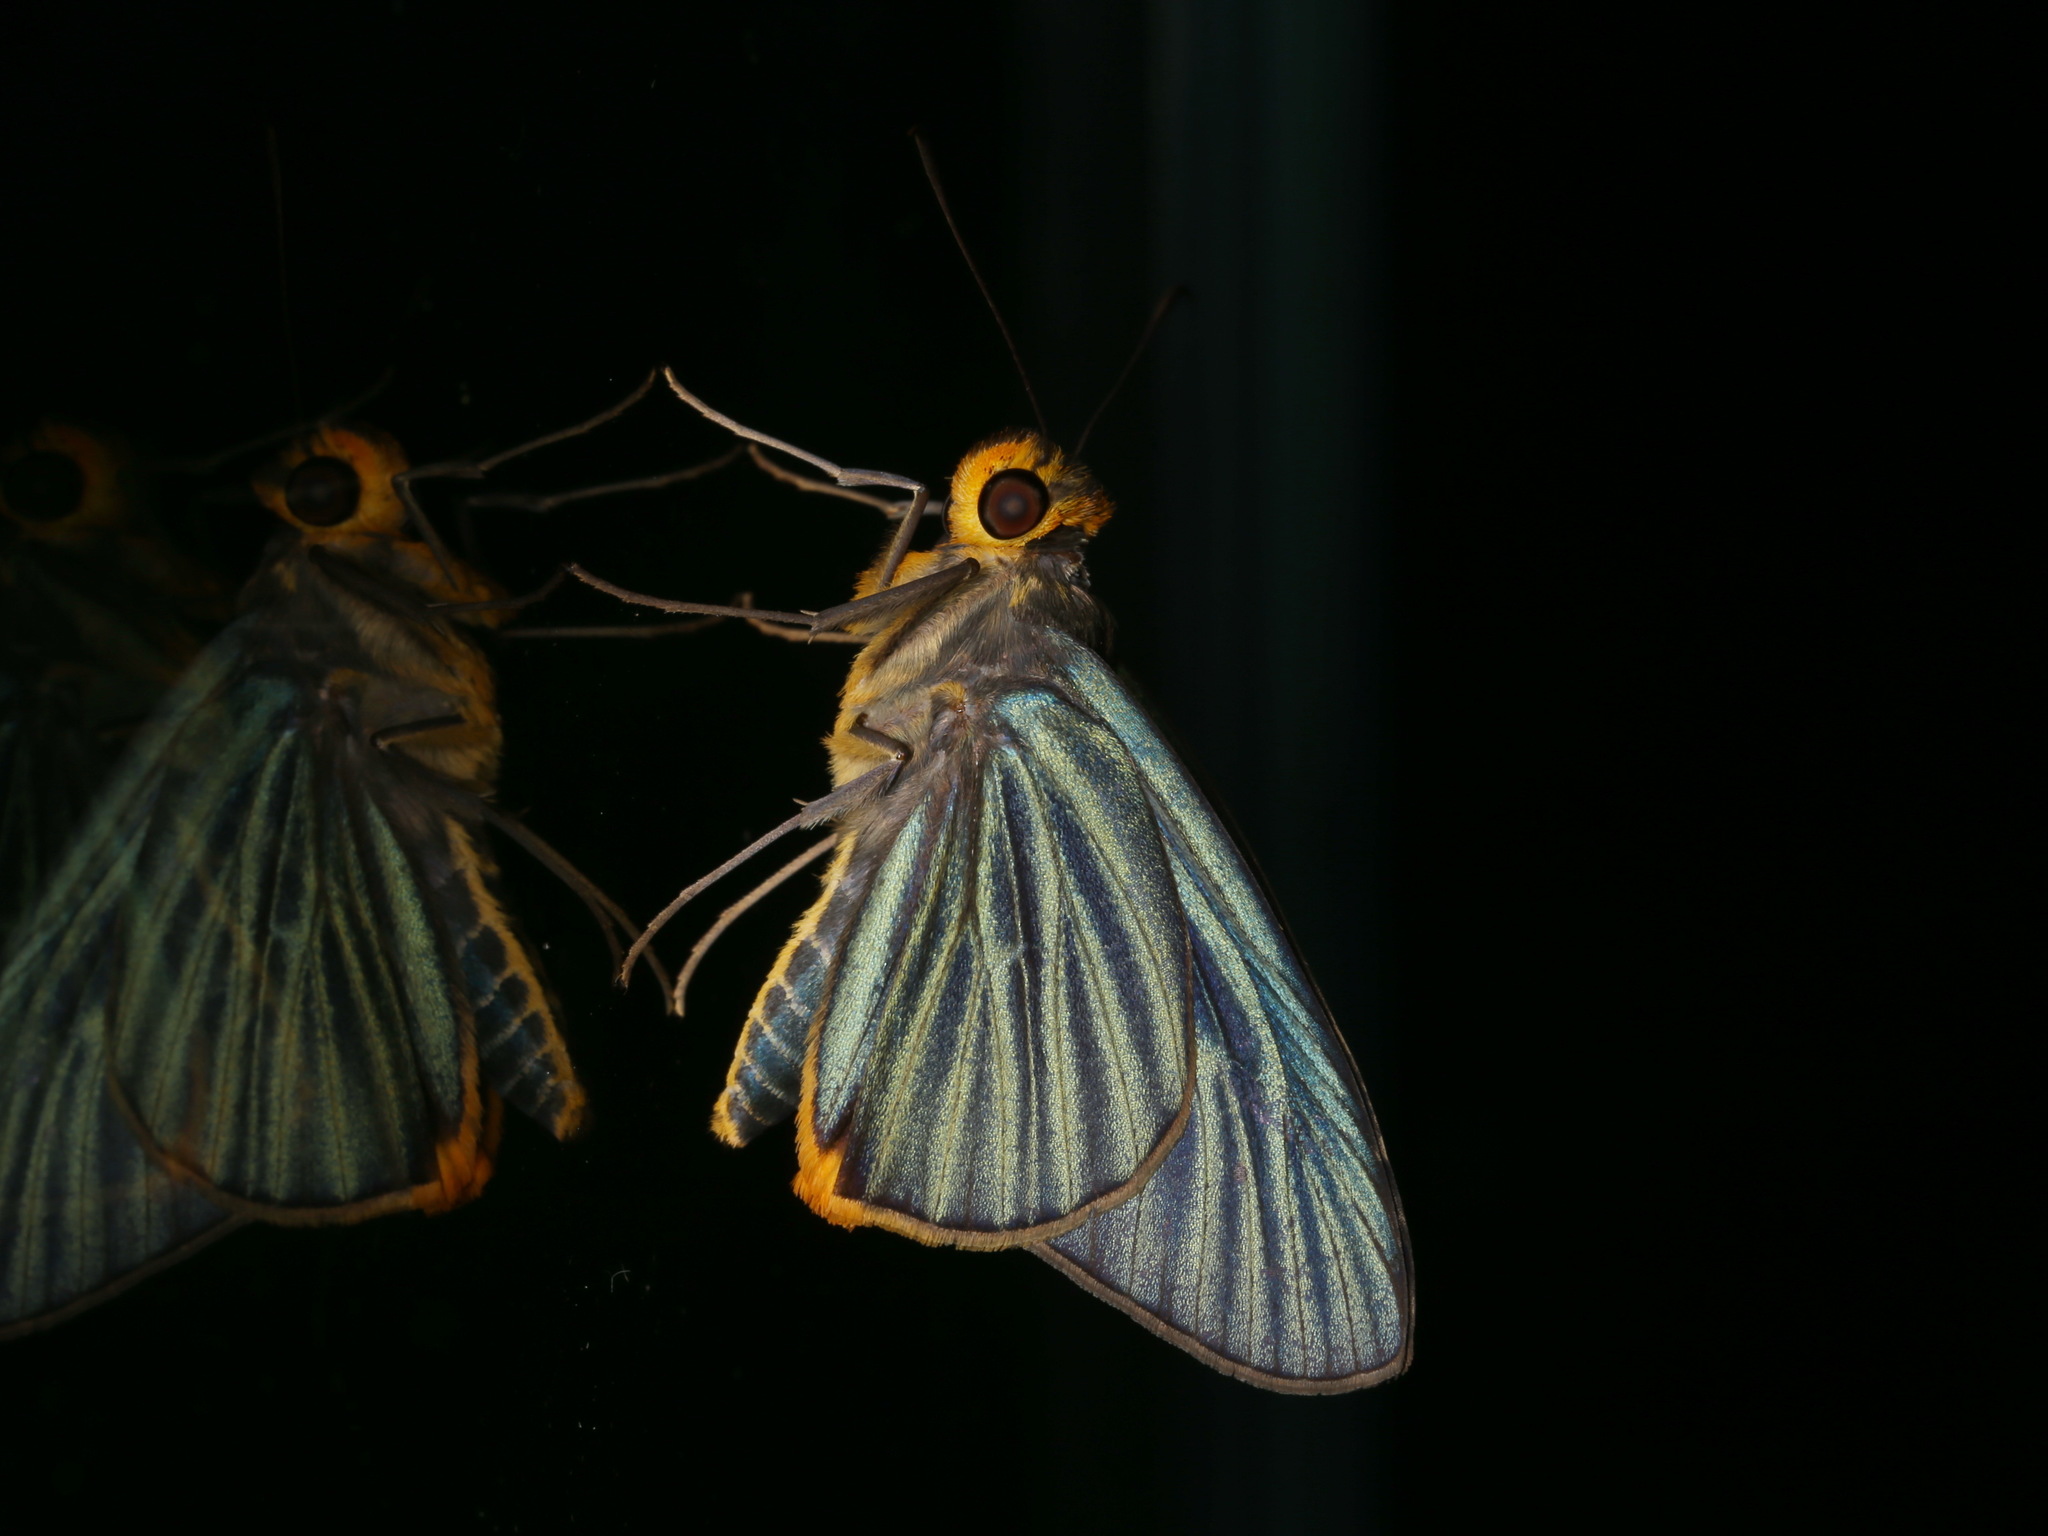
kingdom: Animalia
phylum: Arthropoda
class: Insecta
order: Lepidoptera
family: Hesperiidae
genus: Pirdana
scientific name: Pirdana hyela
